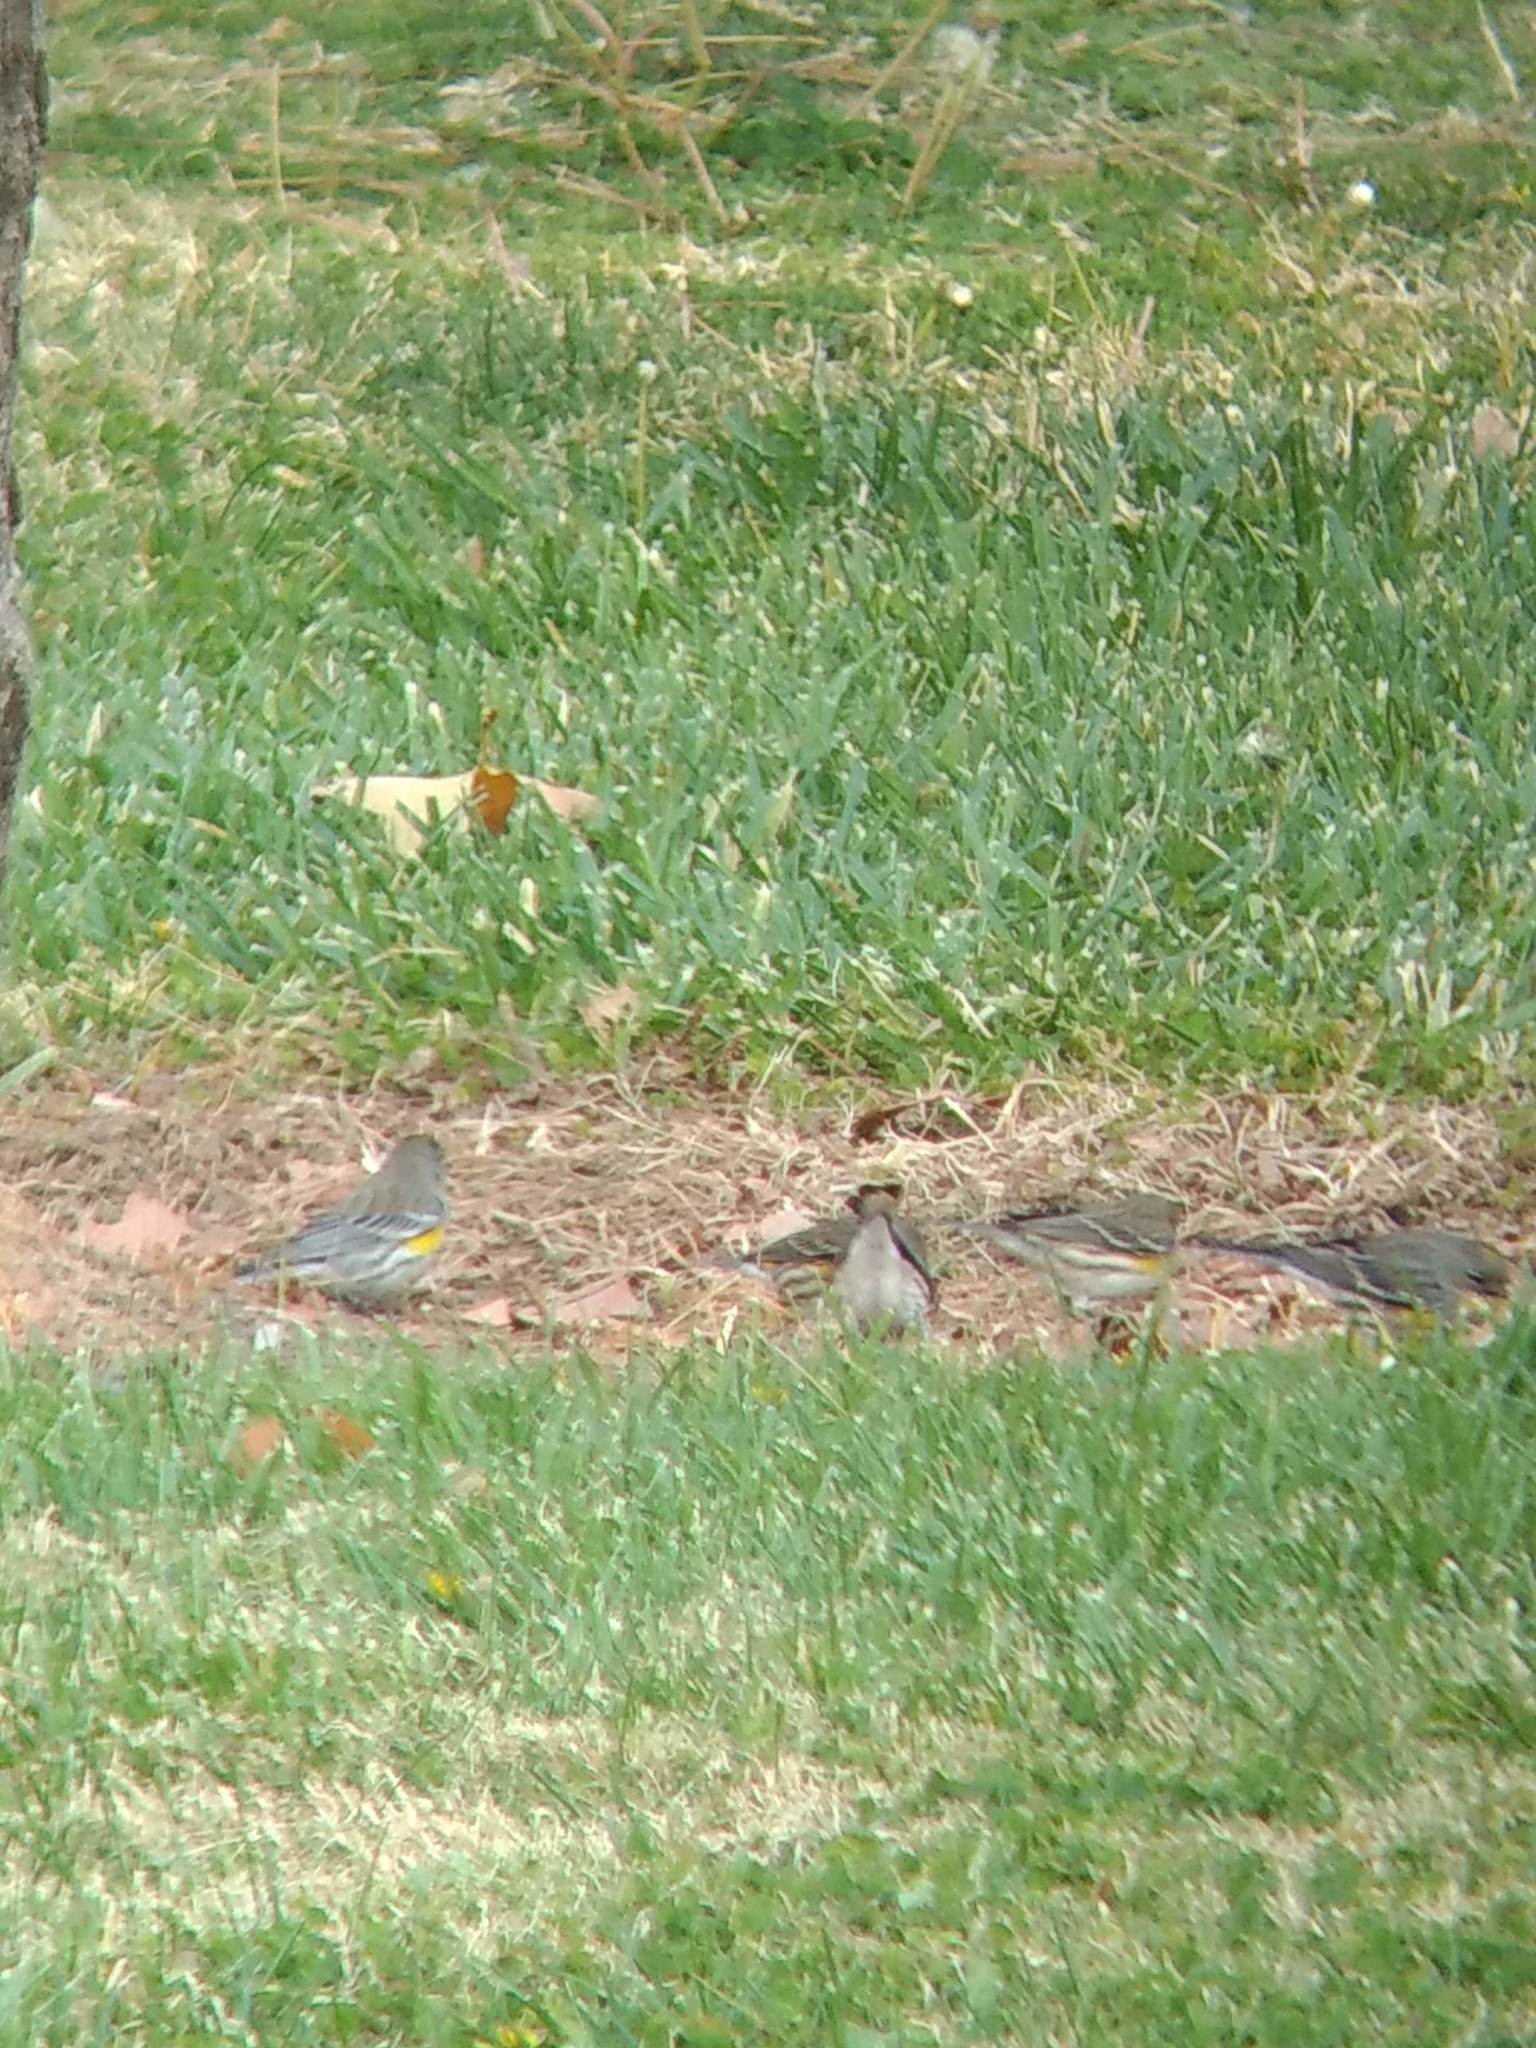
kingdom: Animalia
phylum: Chordata
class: Aves
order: Passeriformes
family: Parulidae
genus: Setophaga
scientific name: Setophaga coronata
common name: Myrtle warbler
